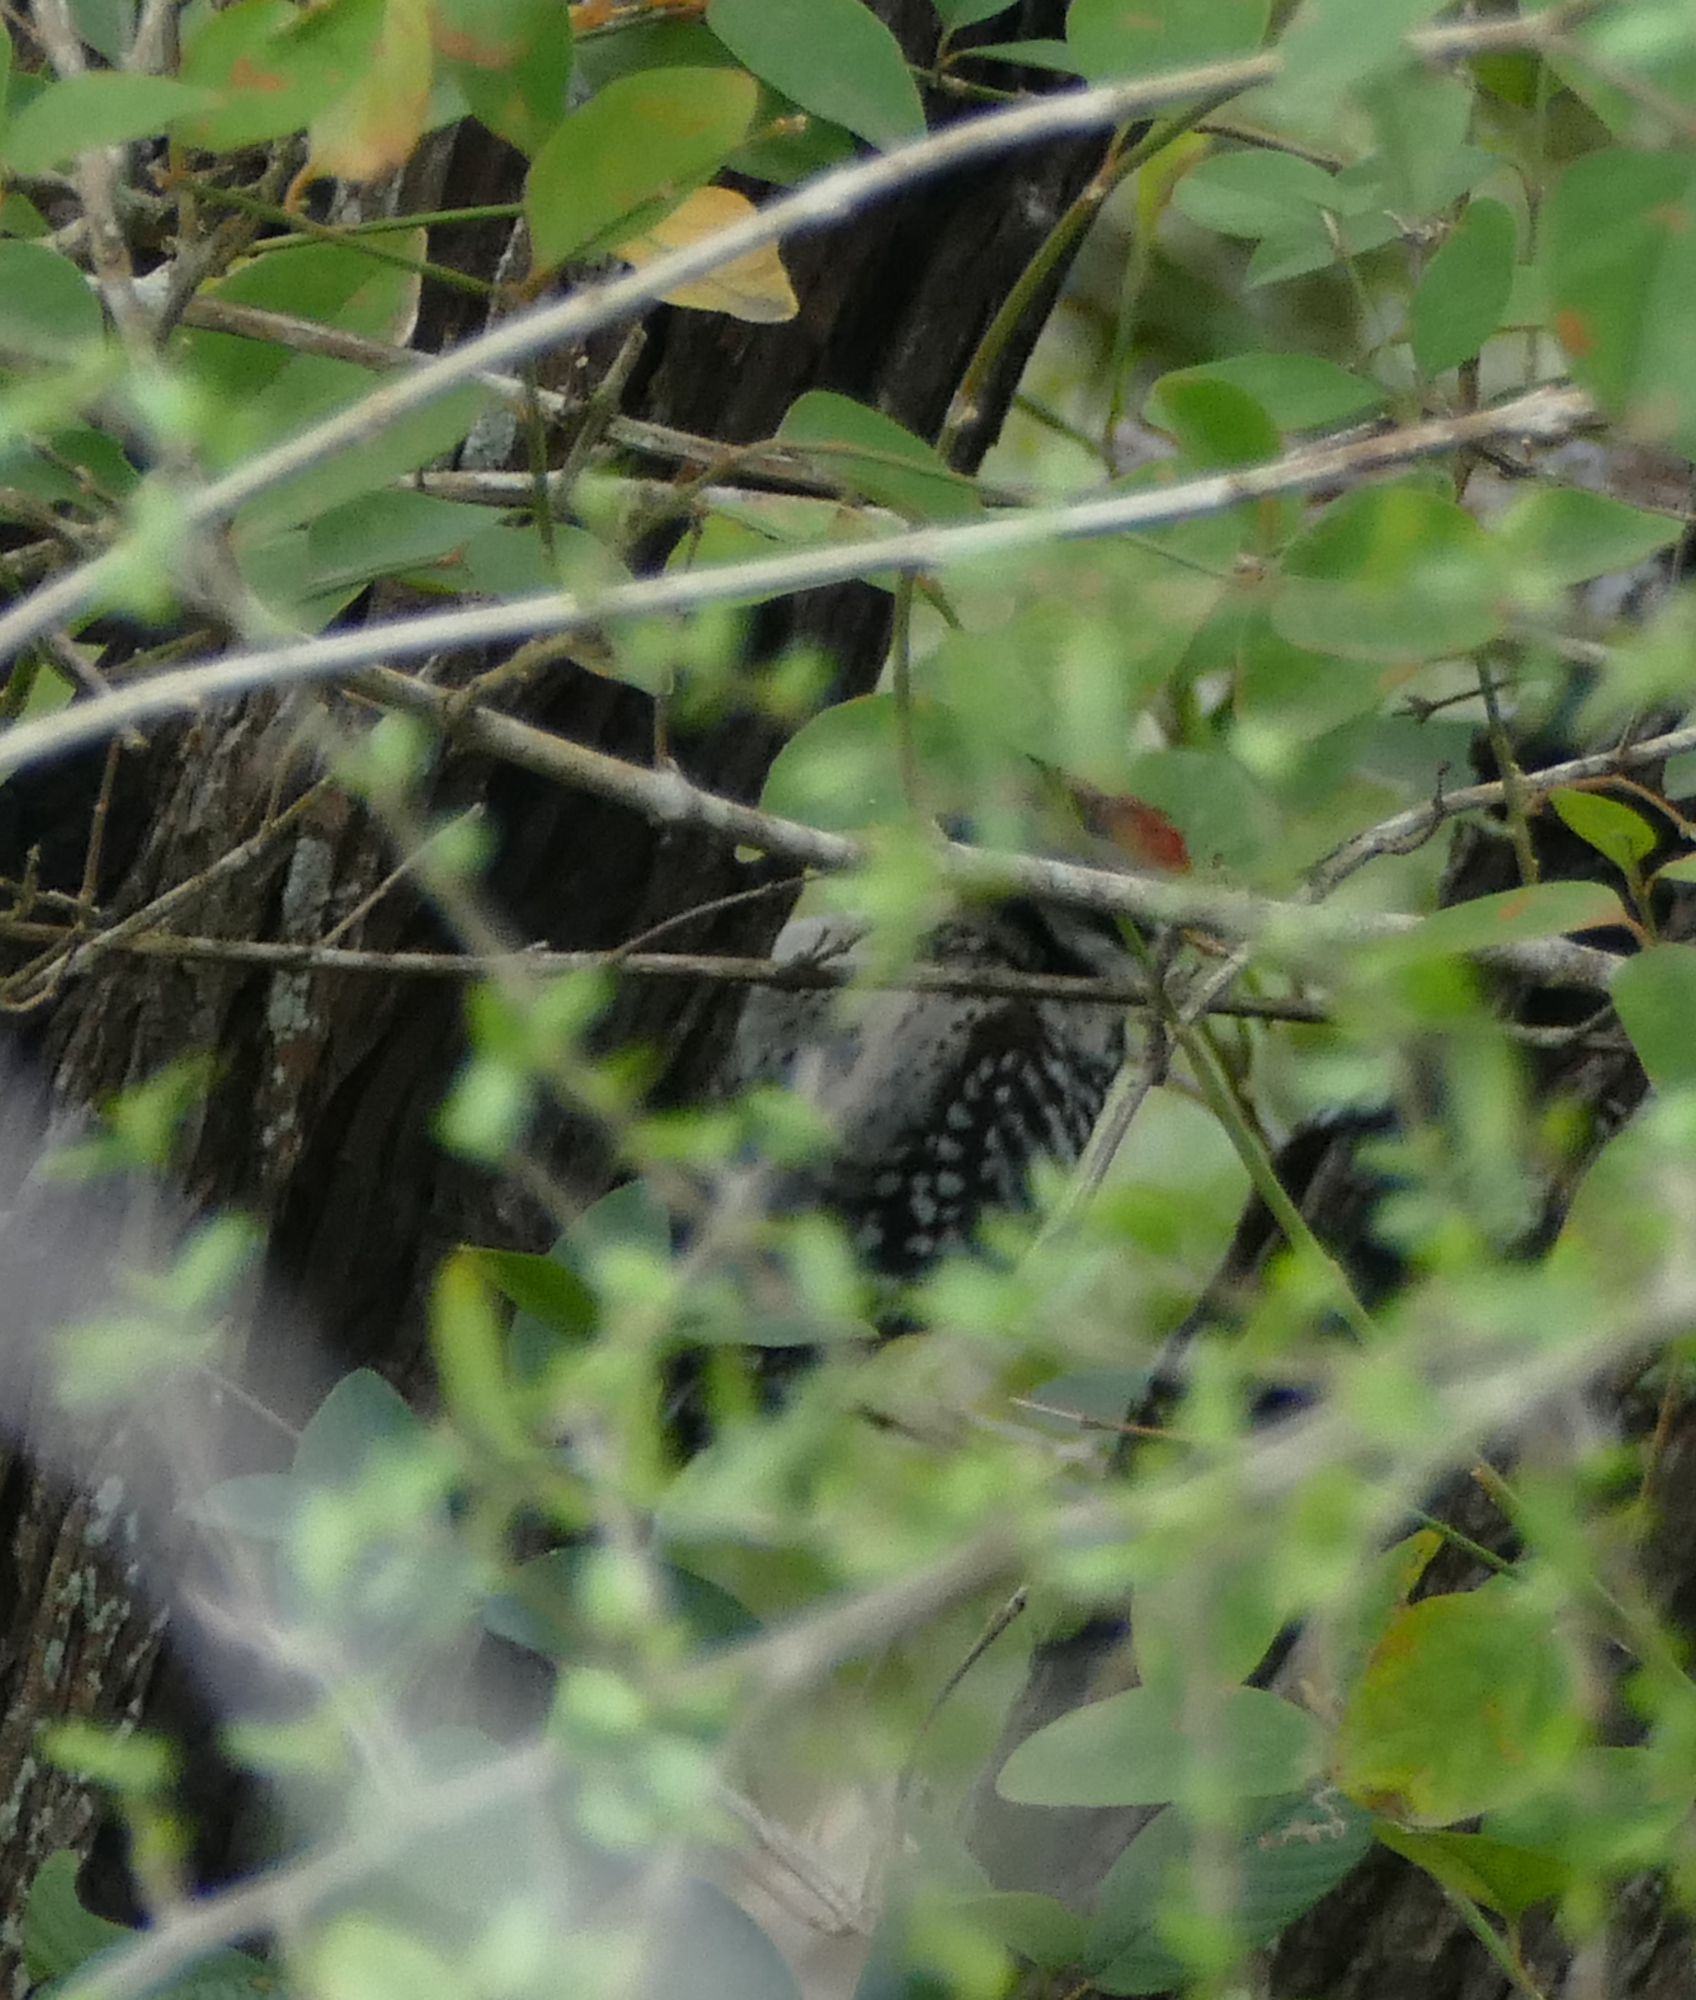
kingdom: Animalia
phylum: Chordata
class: Aves
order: Piciformes
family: Picidae
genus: Dryobates
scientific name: Dryobates scalaris
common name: Ladder-backed woodpecker
